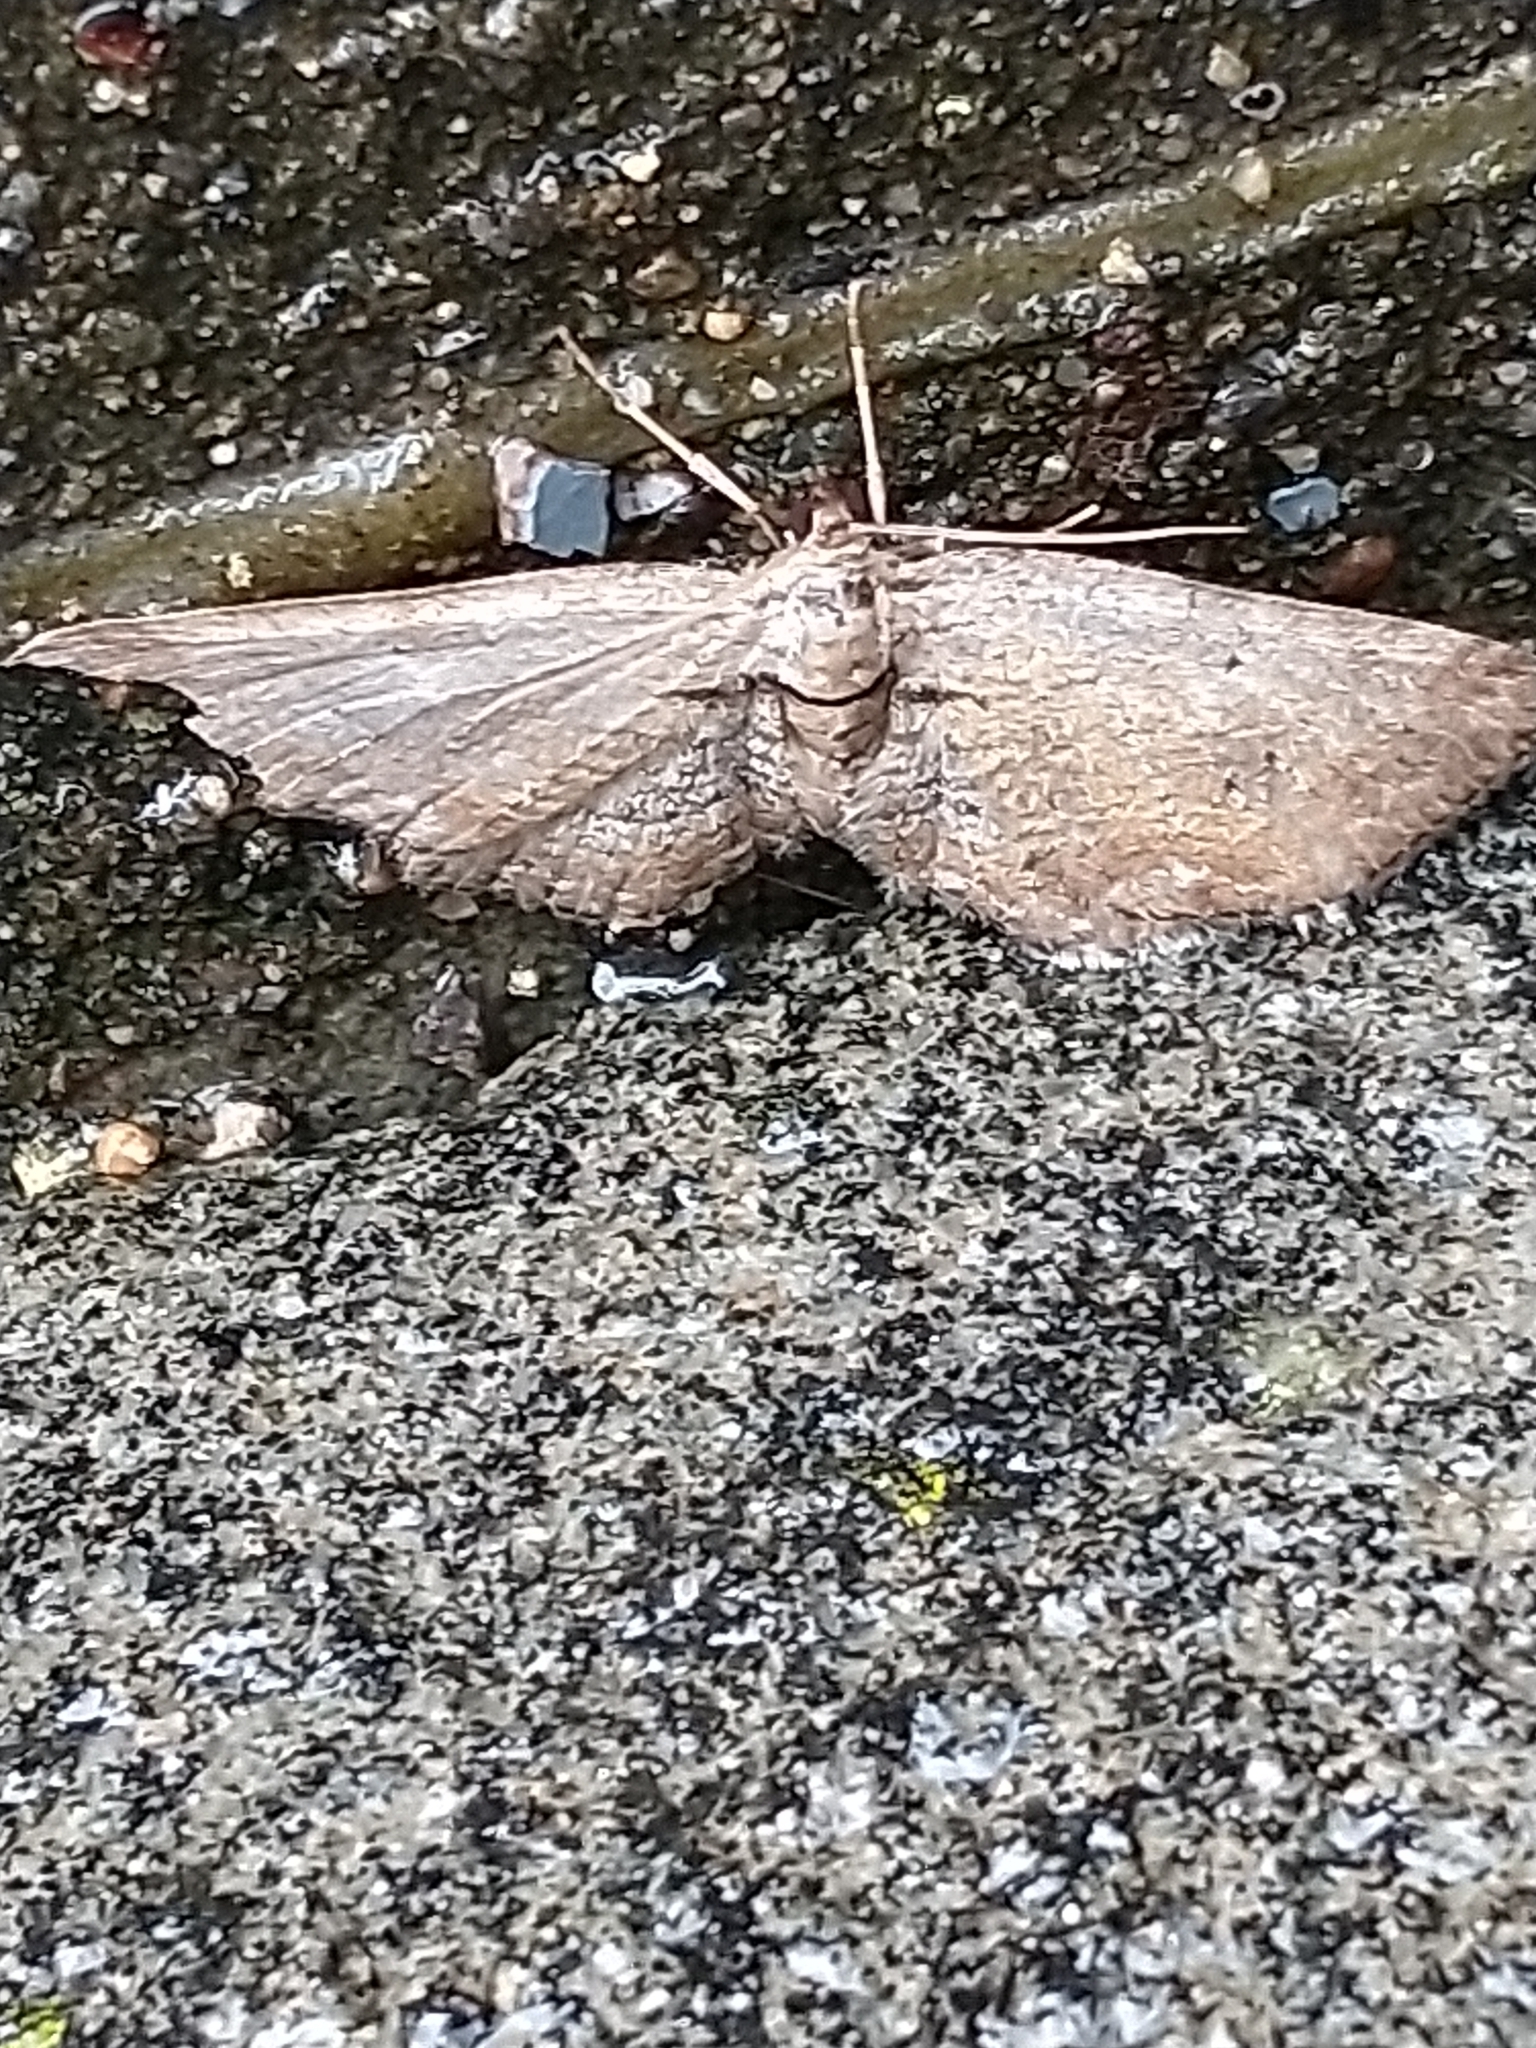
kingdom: Animalia
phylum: Arthropoda
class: Insecta
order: Lepidoptera
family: Geometridae
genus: Horisme
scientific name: Horisme tersata
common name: Fern
